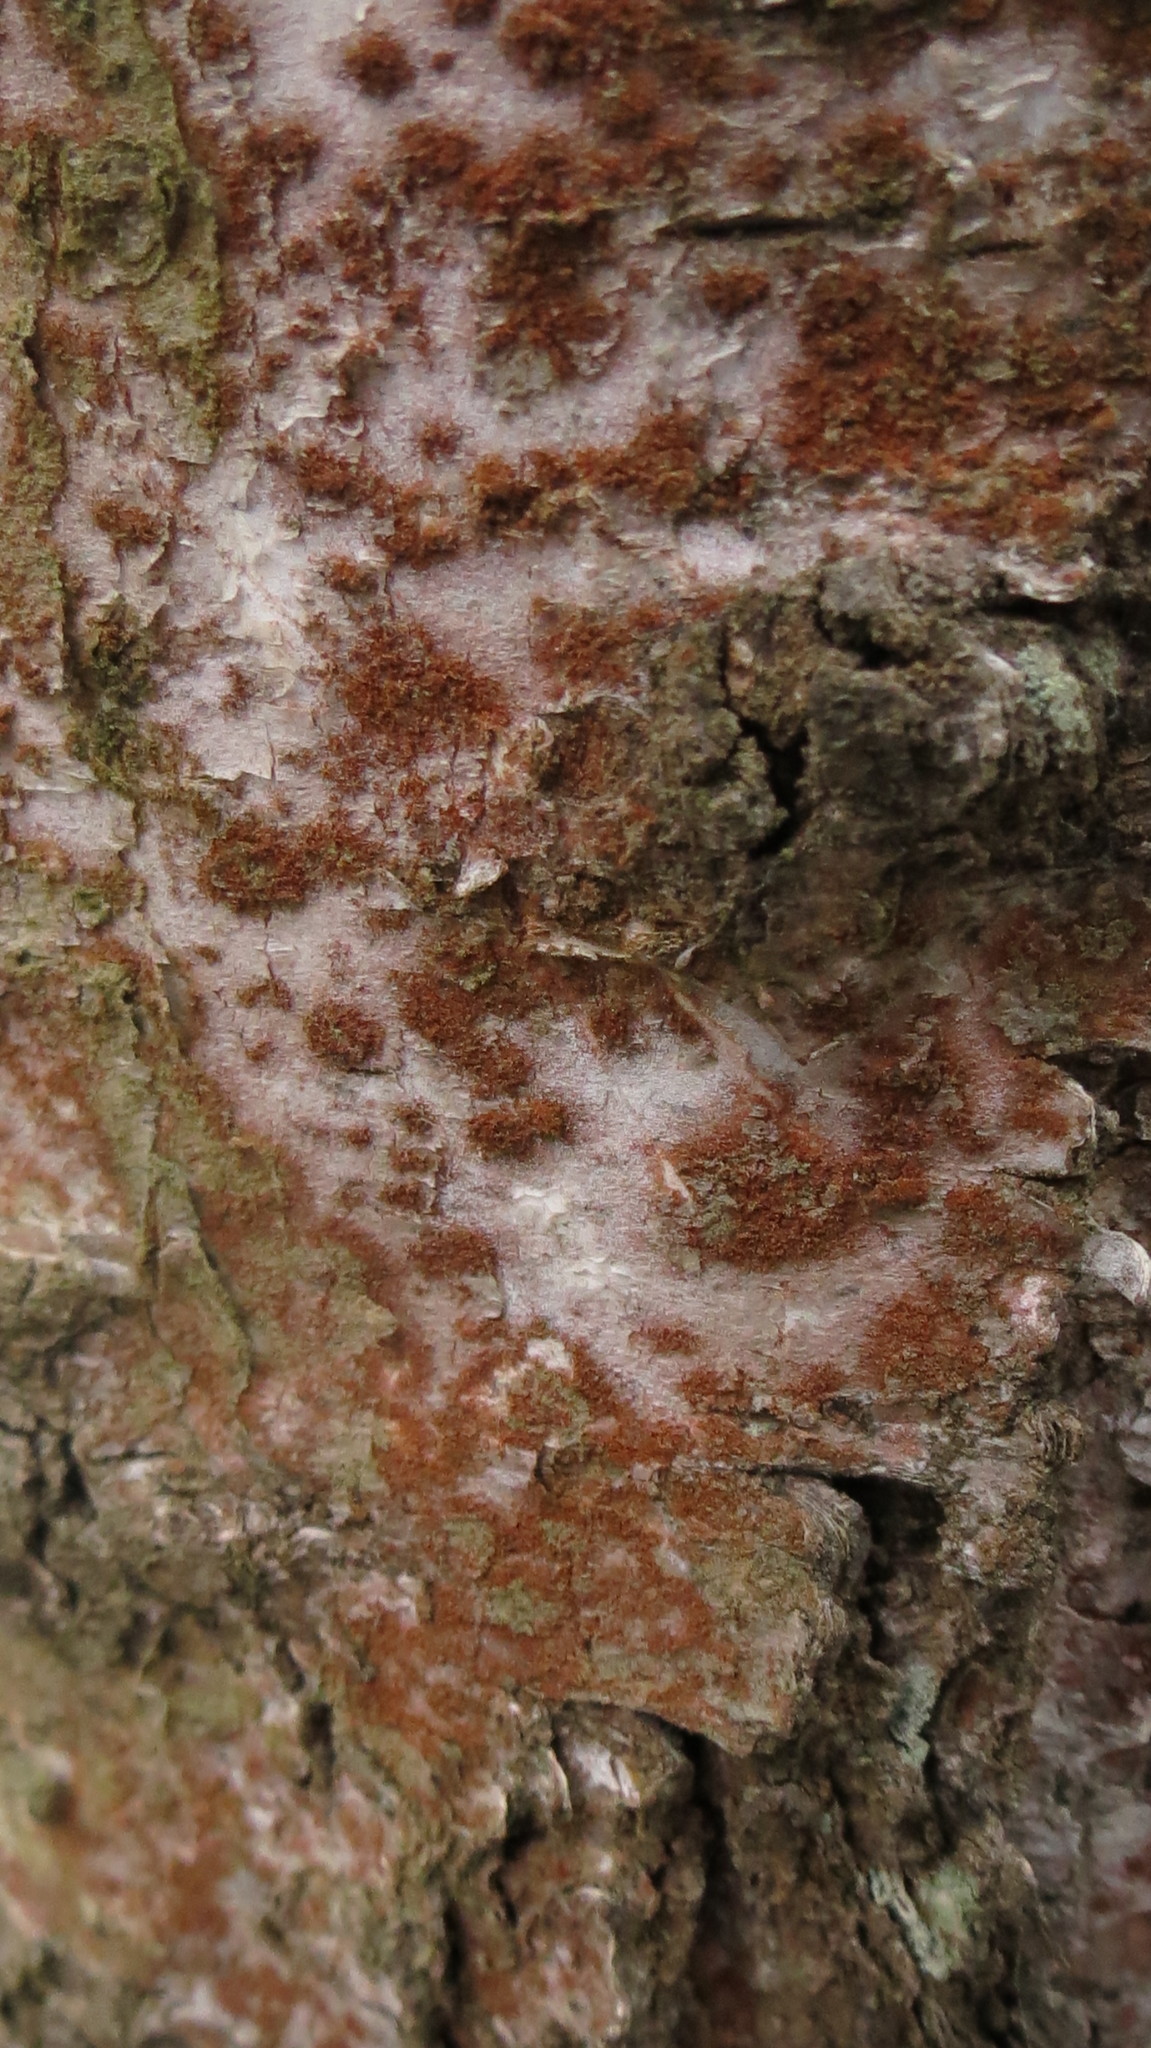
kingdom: Plantae
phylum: Chlorophyta
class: Ulvophyceae
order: Trentepohliales
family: Trentepohliaceae
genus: Trentepohlia
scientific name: Trentepohlia
